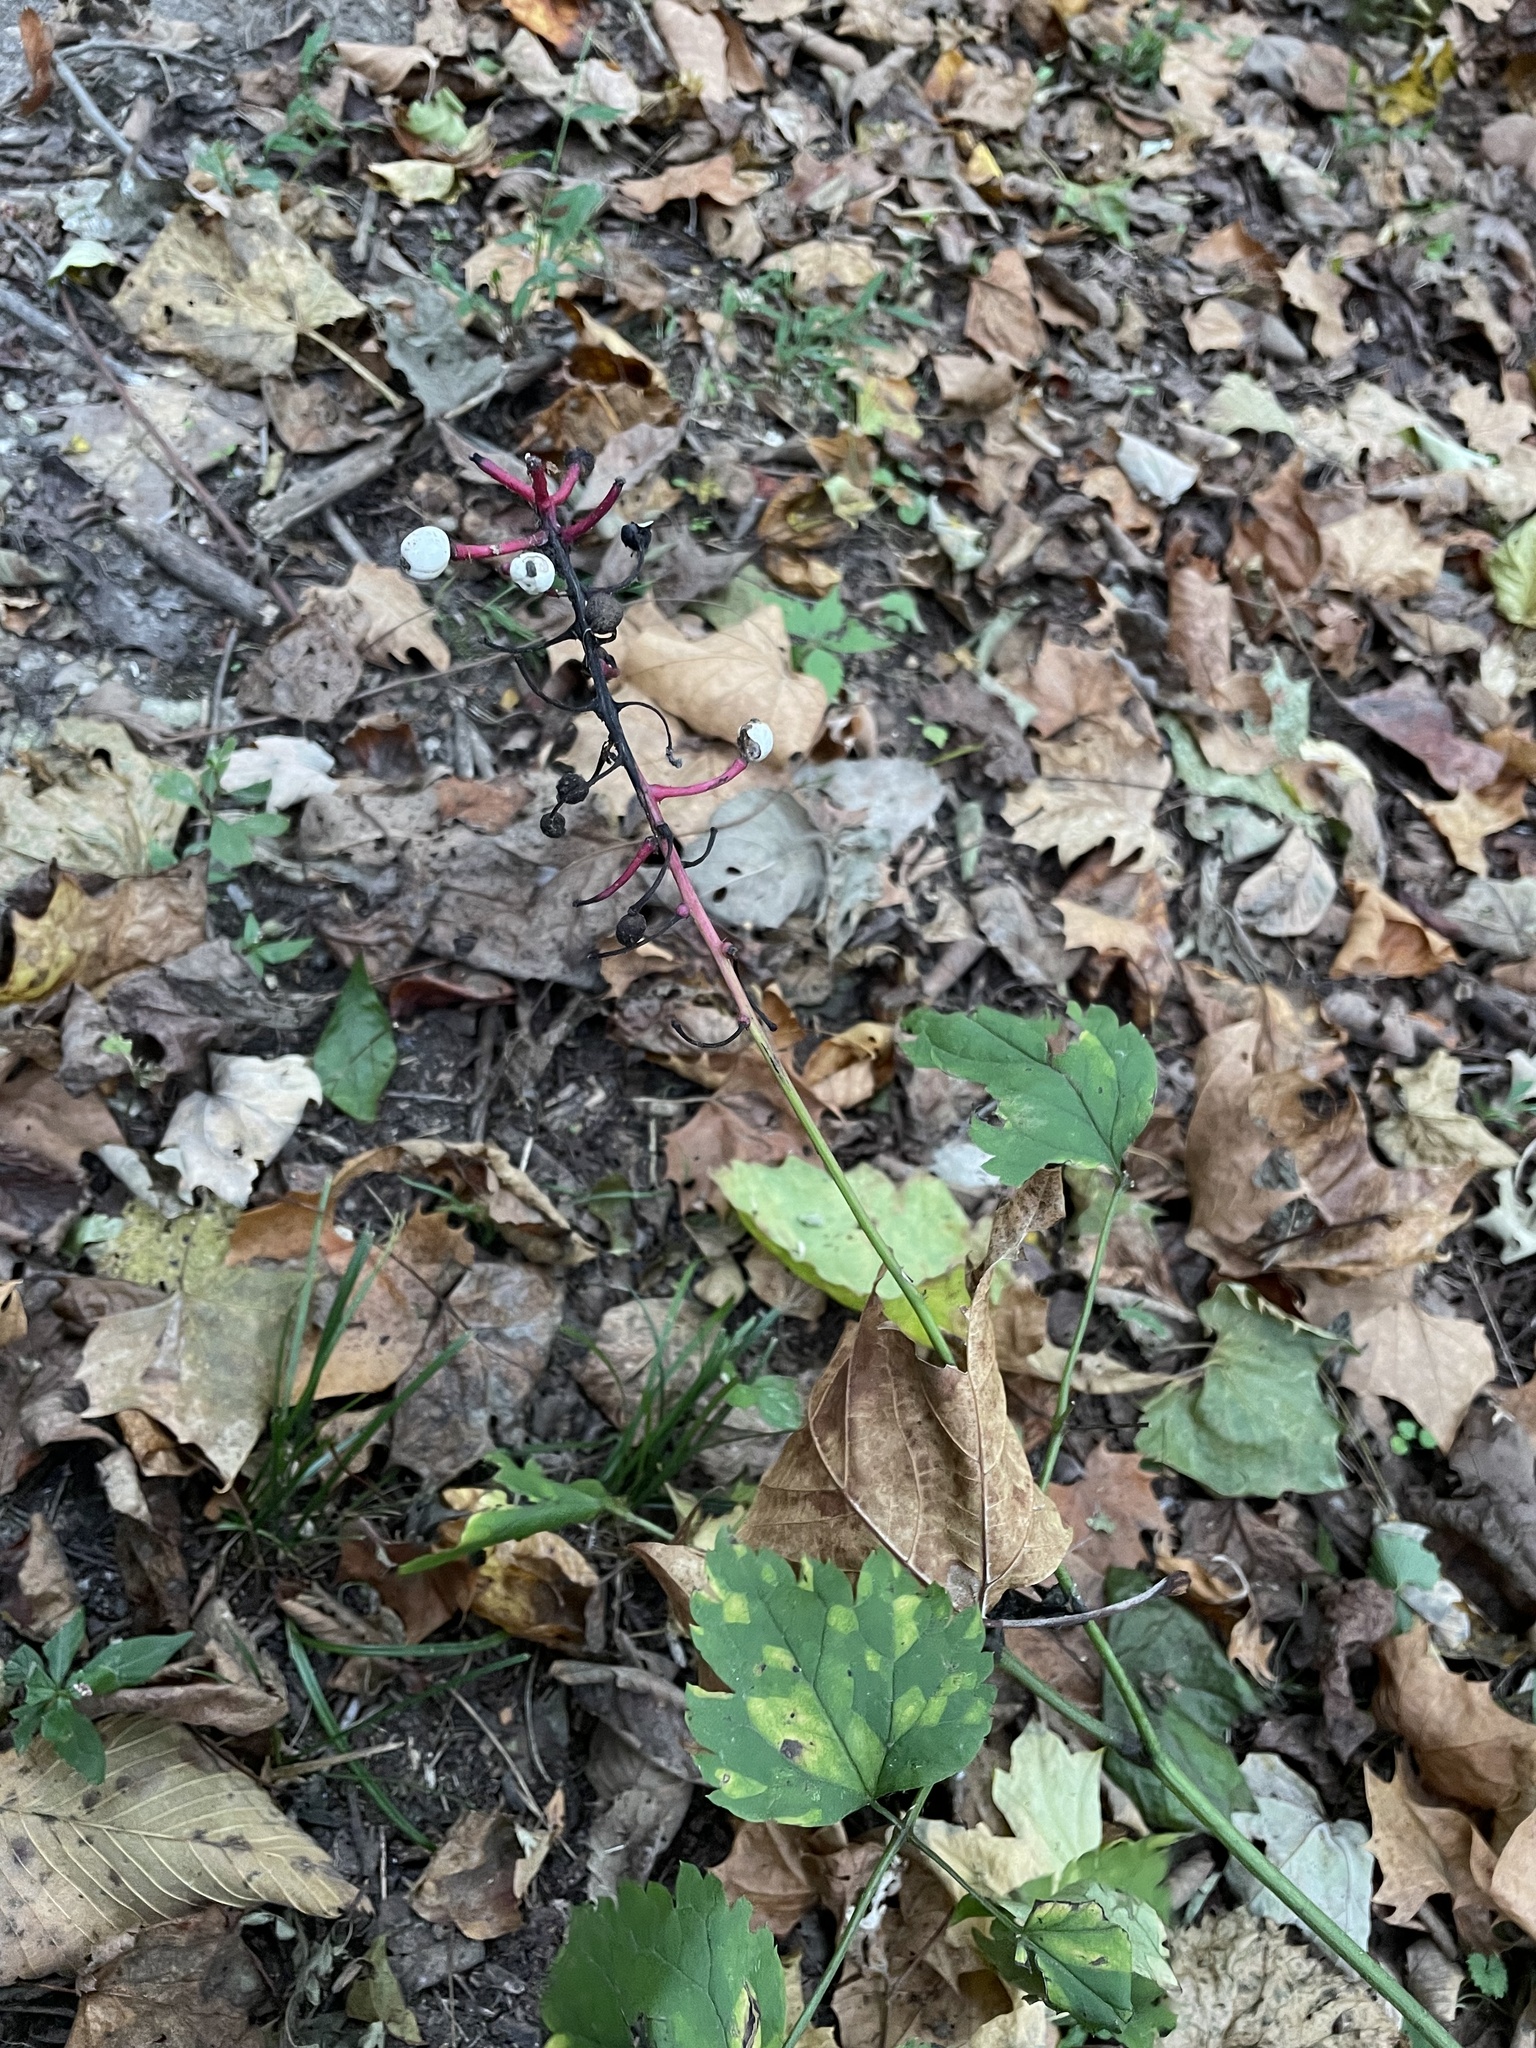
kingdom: Plantae
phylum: Tracheophyta
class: Magnoliopsida
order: Ranunculales
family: Ranunculaceae
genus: Actaea
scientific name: Actaea pachypoda
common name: Doll's-eyes
